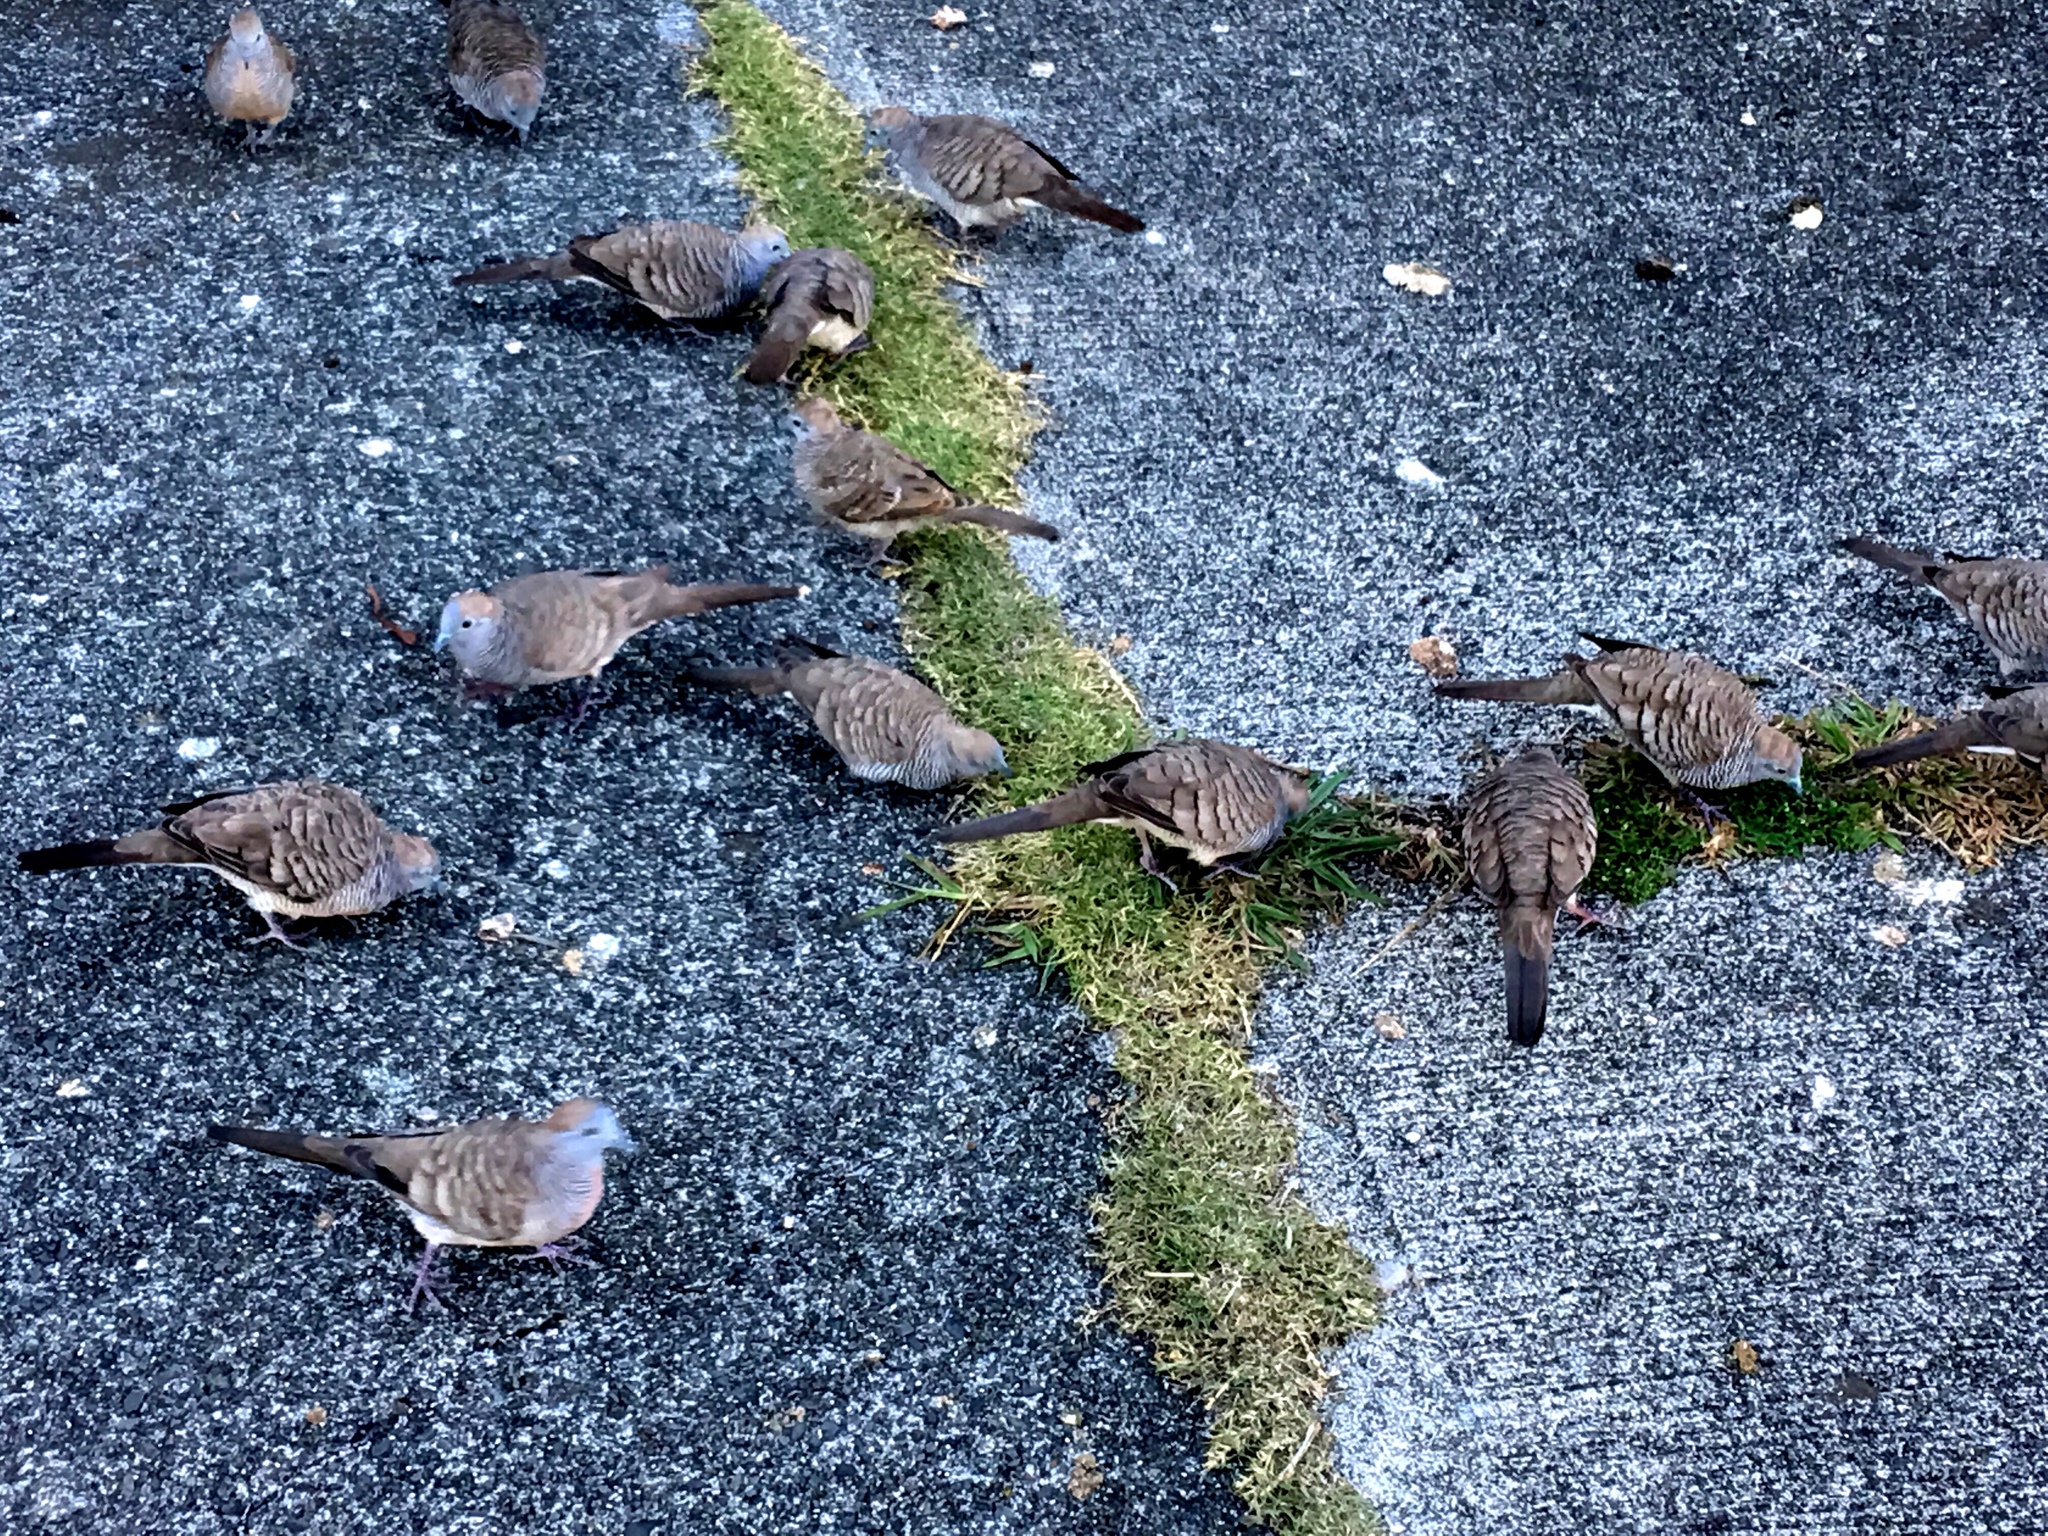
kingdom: Animalia
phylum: Chordata
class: Aves
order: Columbiformes
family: Columbidae
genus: Geopelia
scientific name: Geopelia striata
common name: Zebra dove
